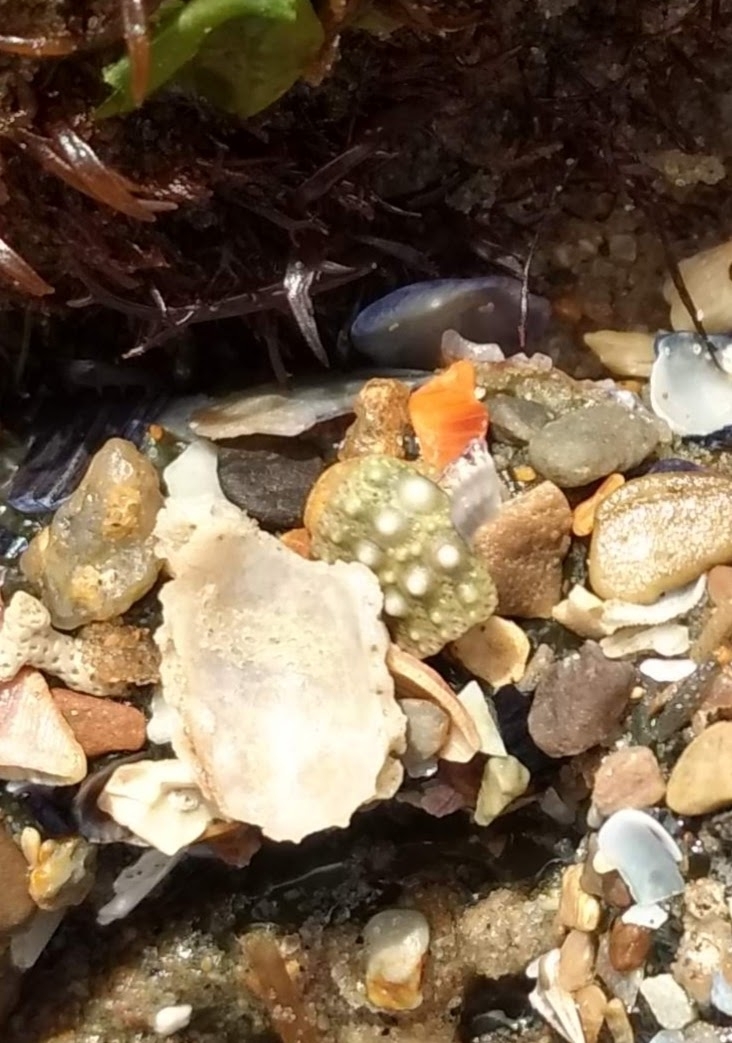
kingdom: Animalia
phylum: Echinodermata
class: Echinoidea
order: Camarodonta
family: Strongylocentrotidae
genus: Strongylocentrotus
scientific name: Strongylocentrotus purpuratus
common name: Purple sea urchin
